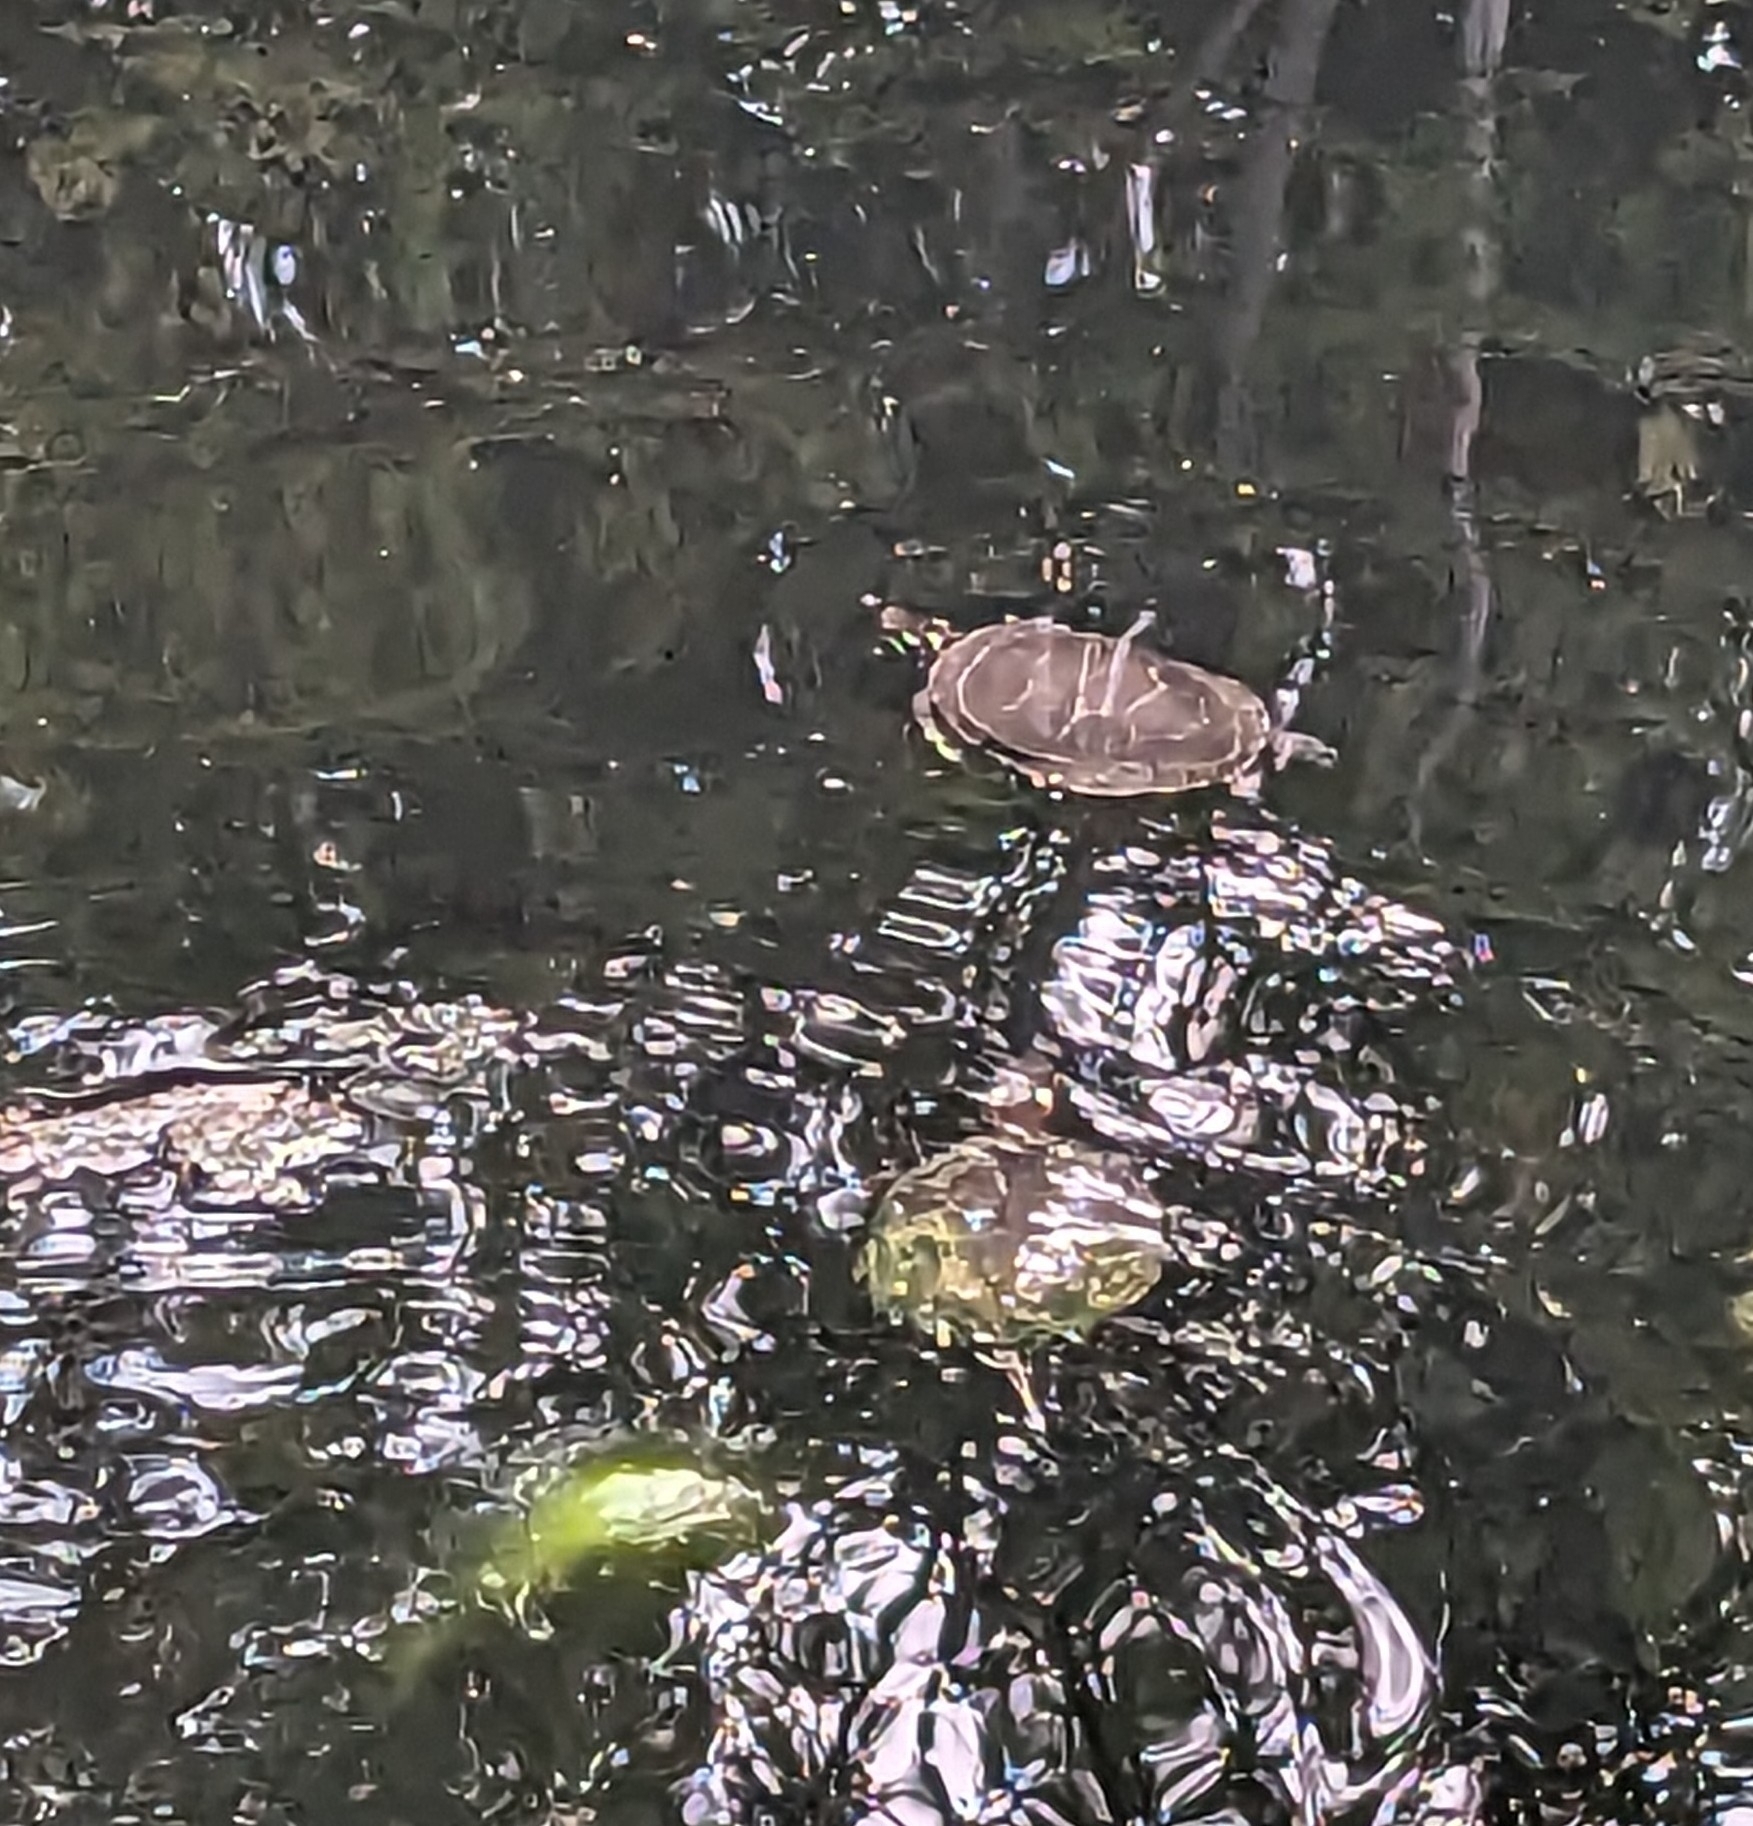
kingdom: Animalia
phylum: Chordata
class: Testudines
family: Emydidae
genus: Chrysemys
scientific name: Chrysemys picta
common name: Painted turtle
